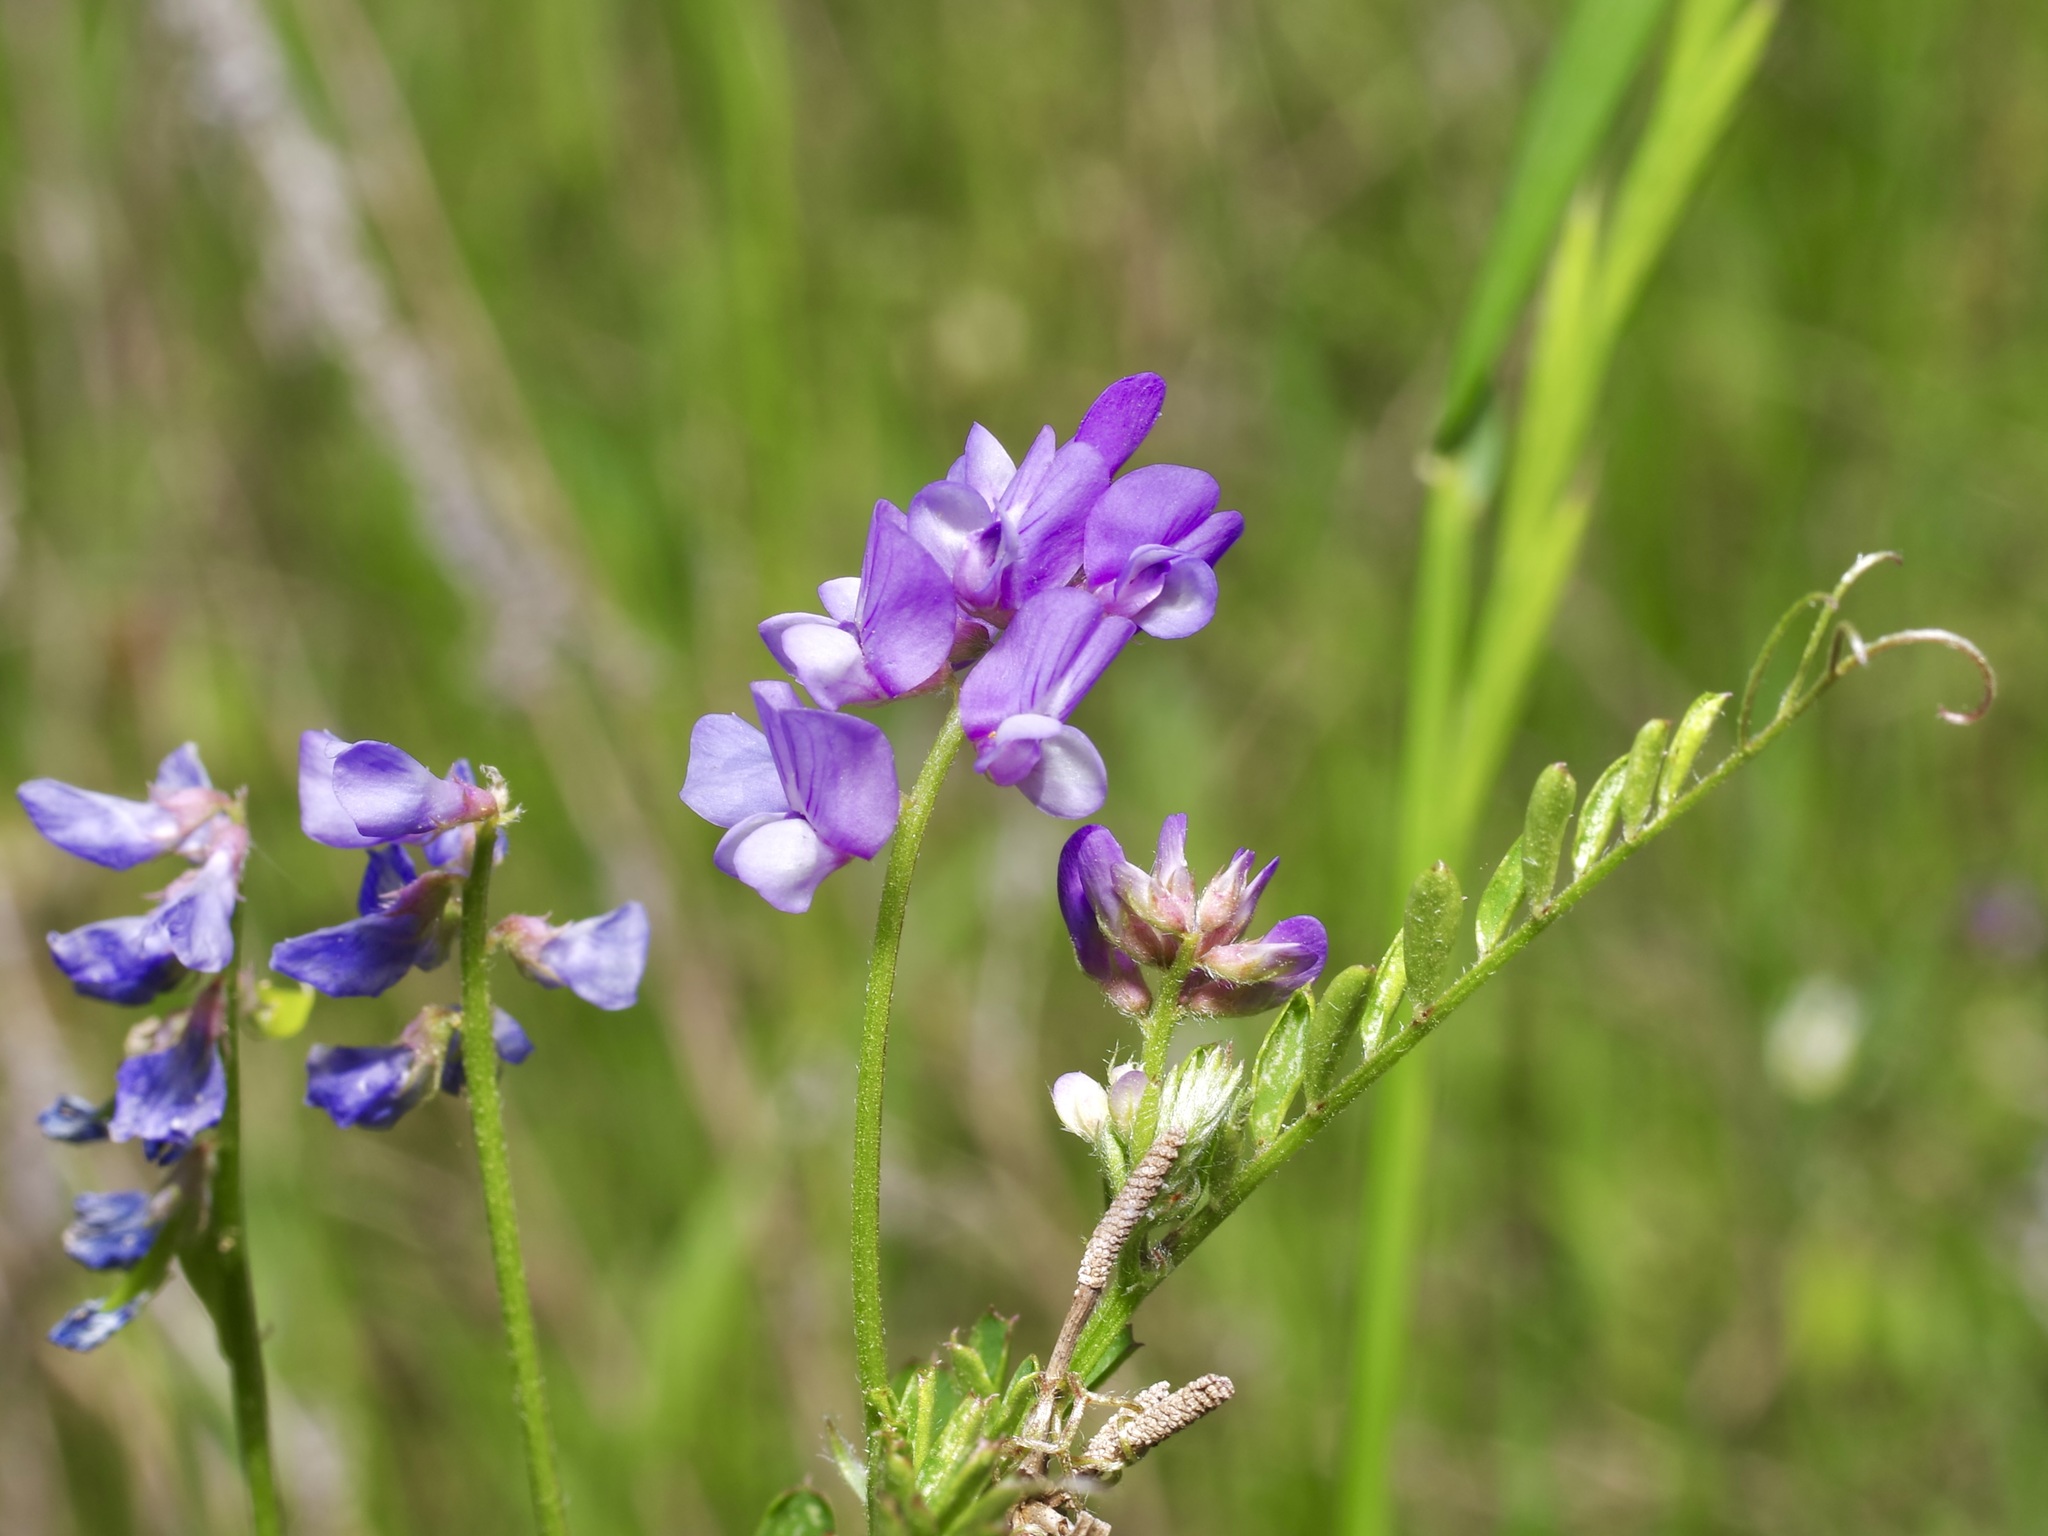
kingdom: Plantae
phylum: Tracheophyta
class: Magnoliopsida
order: Fabales
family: Fabaceae
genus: Vicia
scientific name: Vicia ludoviciana
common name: Louisiana vetch
